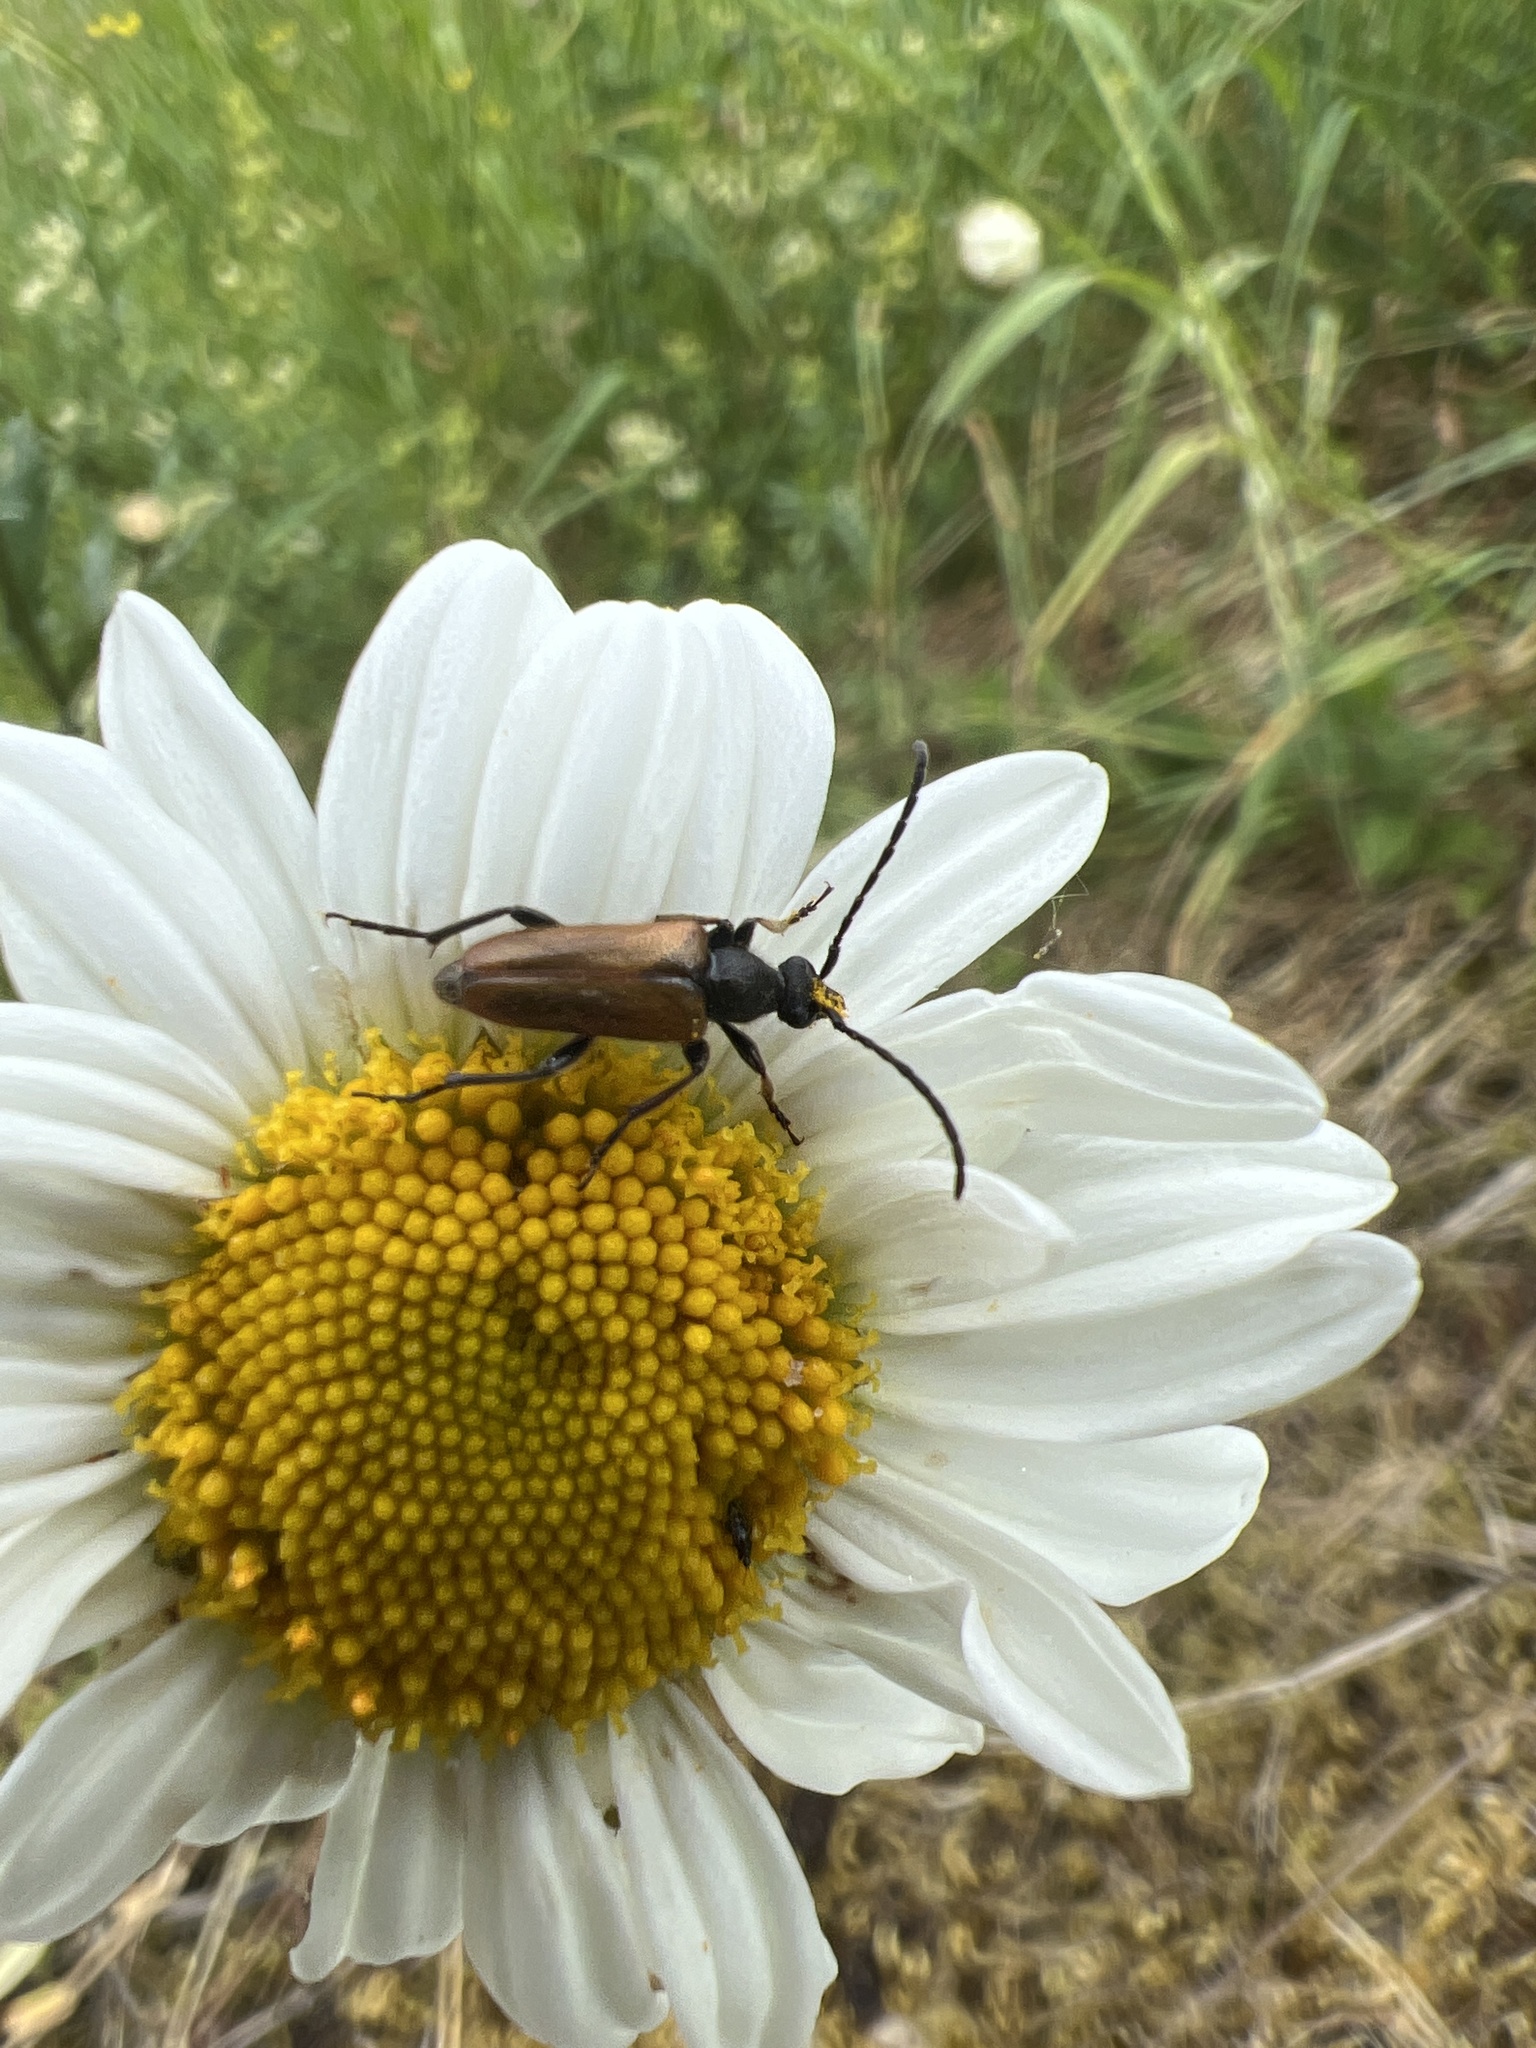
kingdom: Animalia
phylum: Arthropoda
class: Insecta
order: Coleoptera
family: Cerambycidae
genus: Pseudovadonia
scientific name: Pseudovadonia livida
